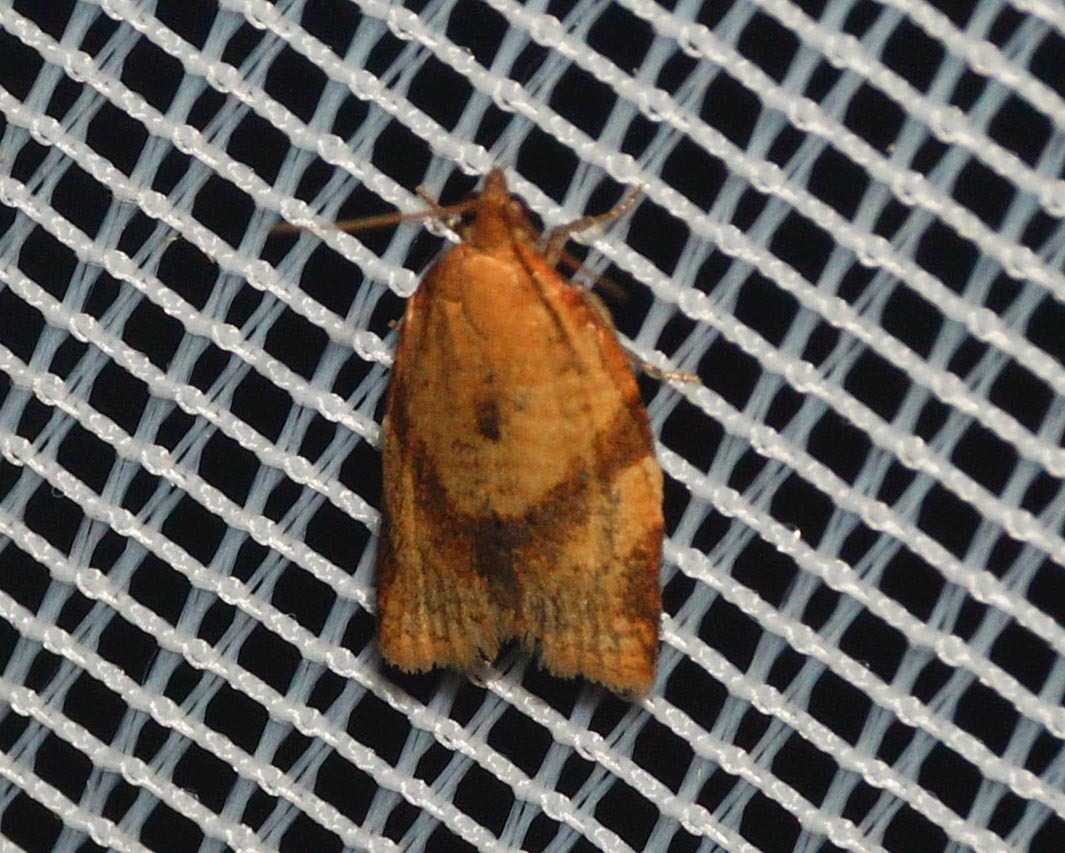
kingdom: Animalia
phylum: Arthropoda
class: Insecta
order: Lepidoptera
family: Tortricidae
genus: Clepsis
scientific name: Clepsis consimilana
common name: Privet tortrix
